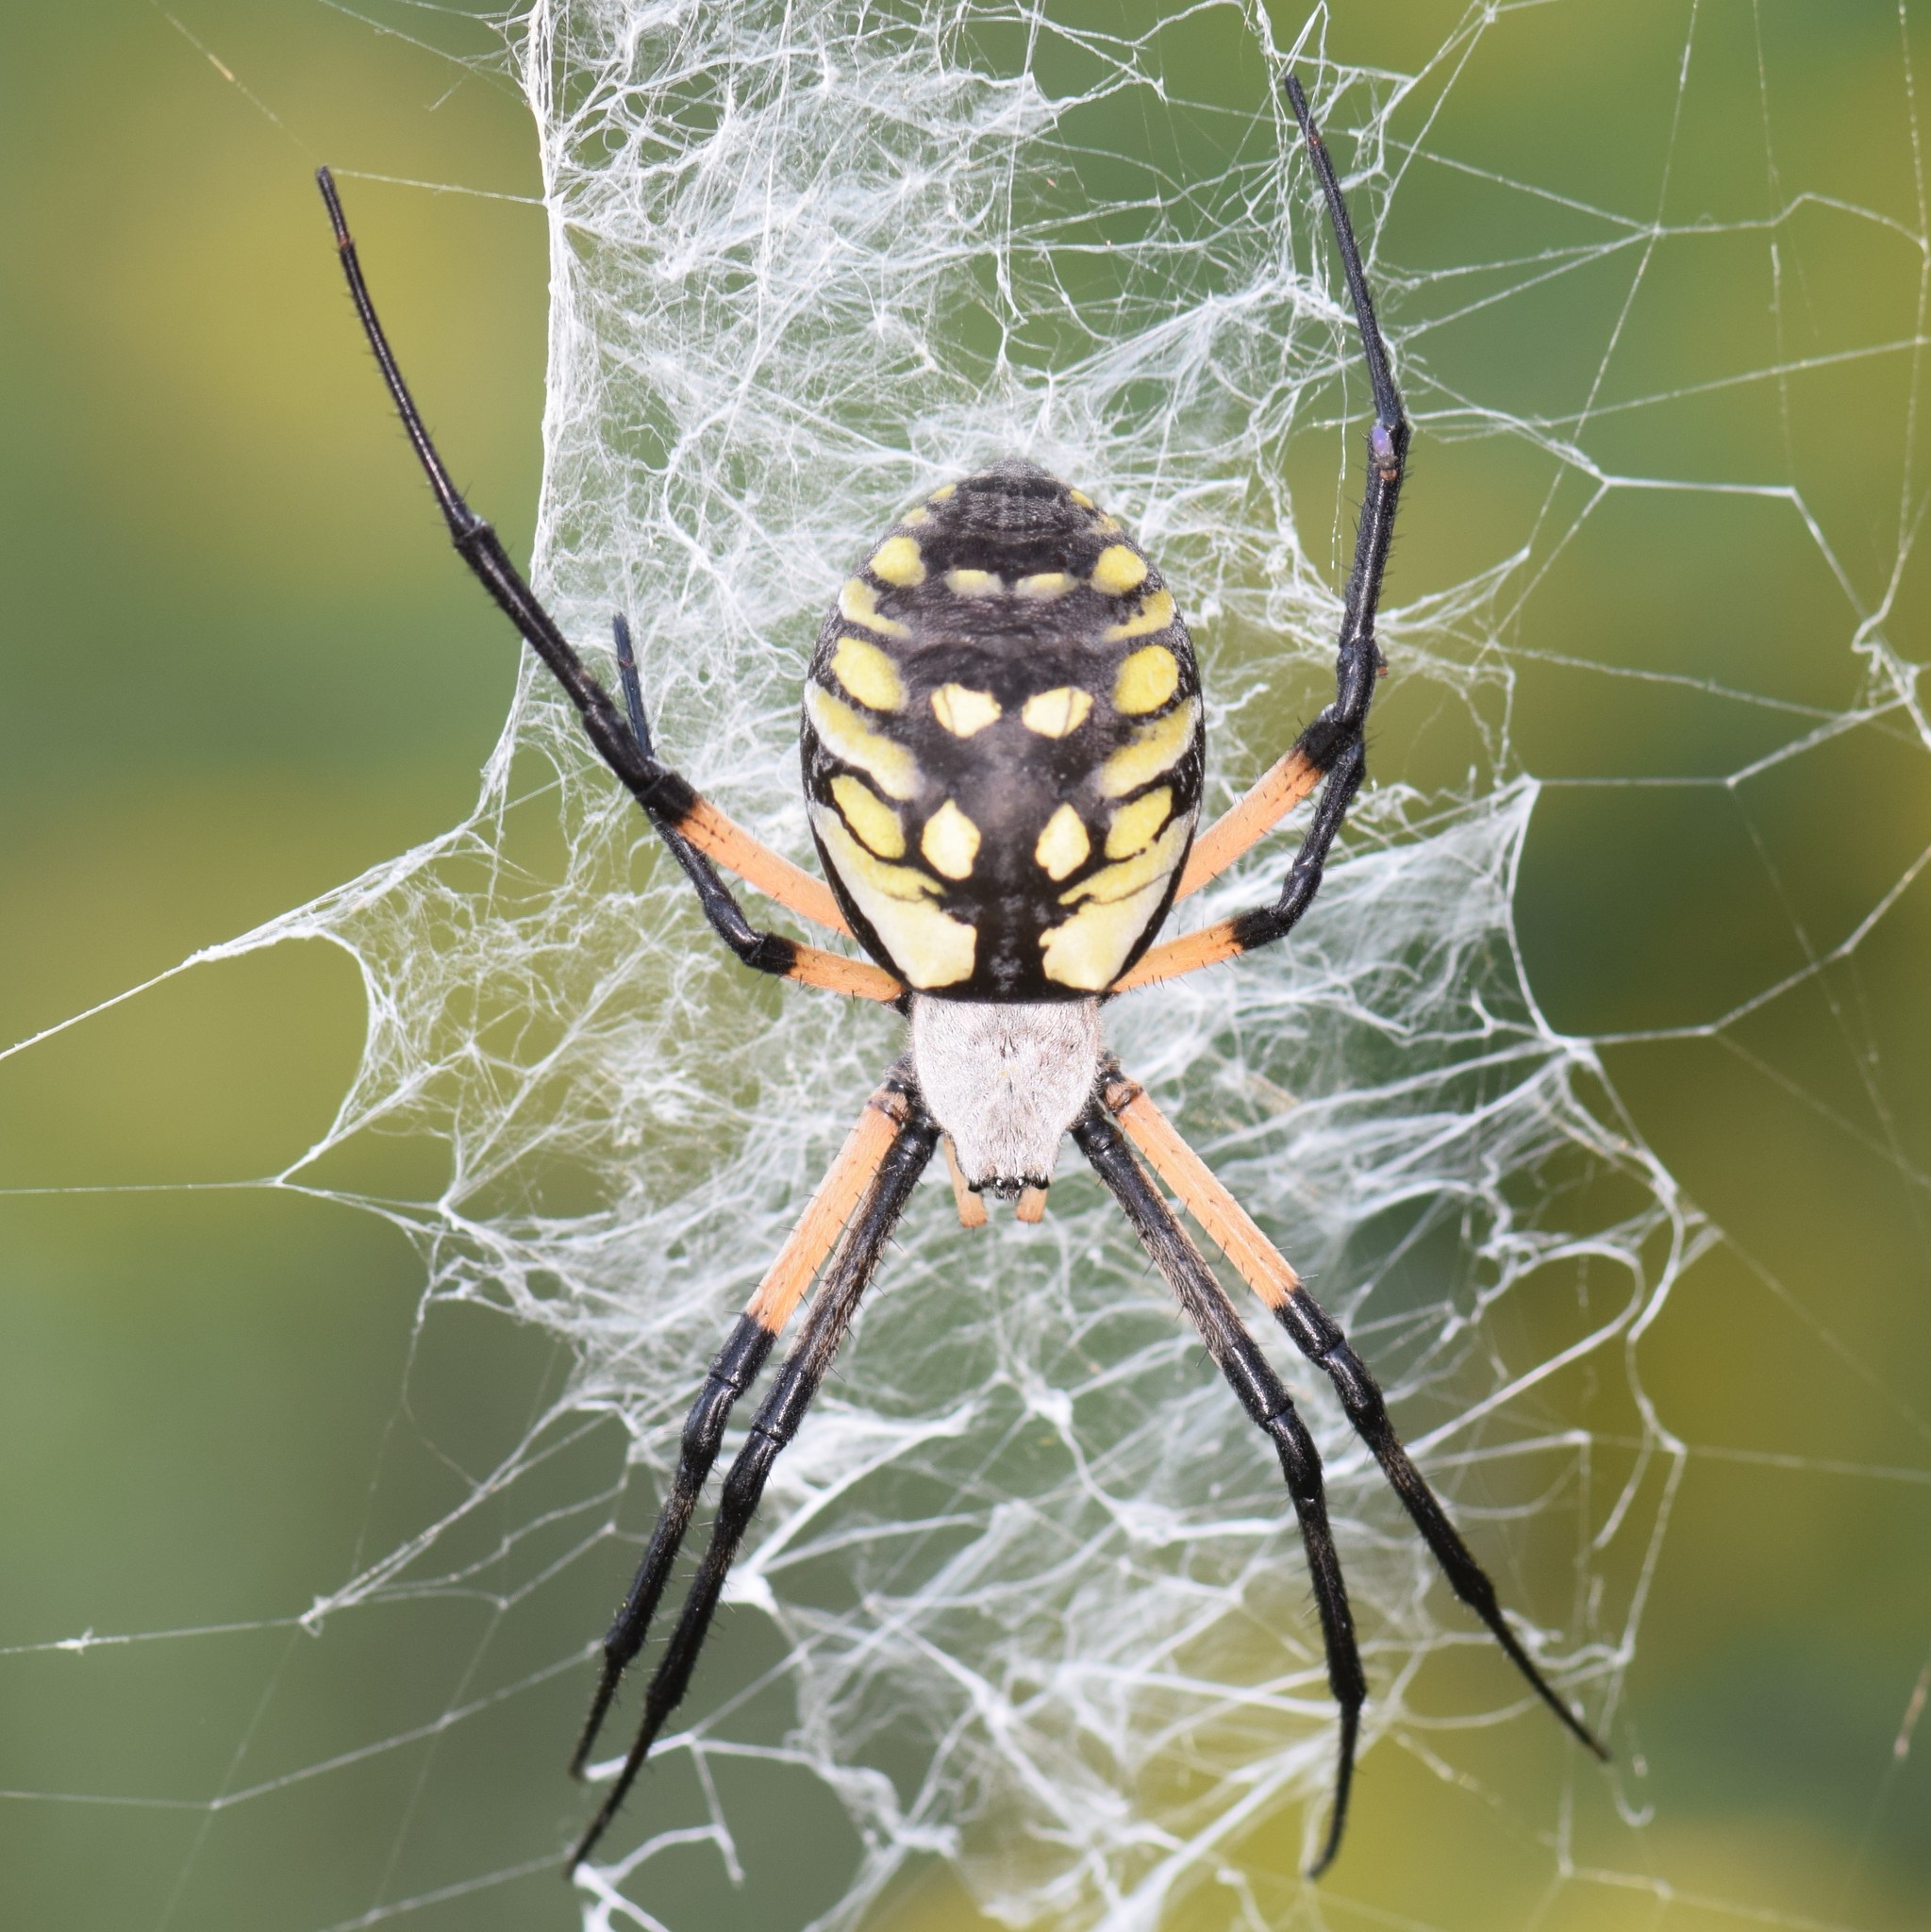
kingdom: Animalia
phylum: Arthropoda
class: Arachnida
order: Araneae
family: Araneidae
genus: Argiope
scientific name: Argiope aurantia
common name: Orb weavers
